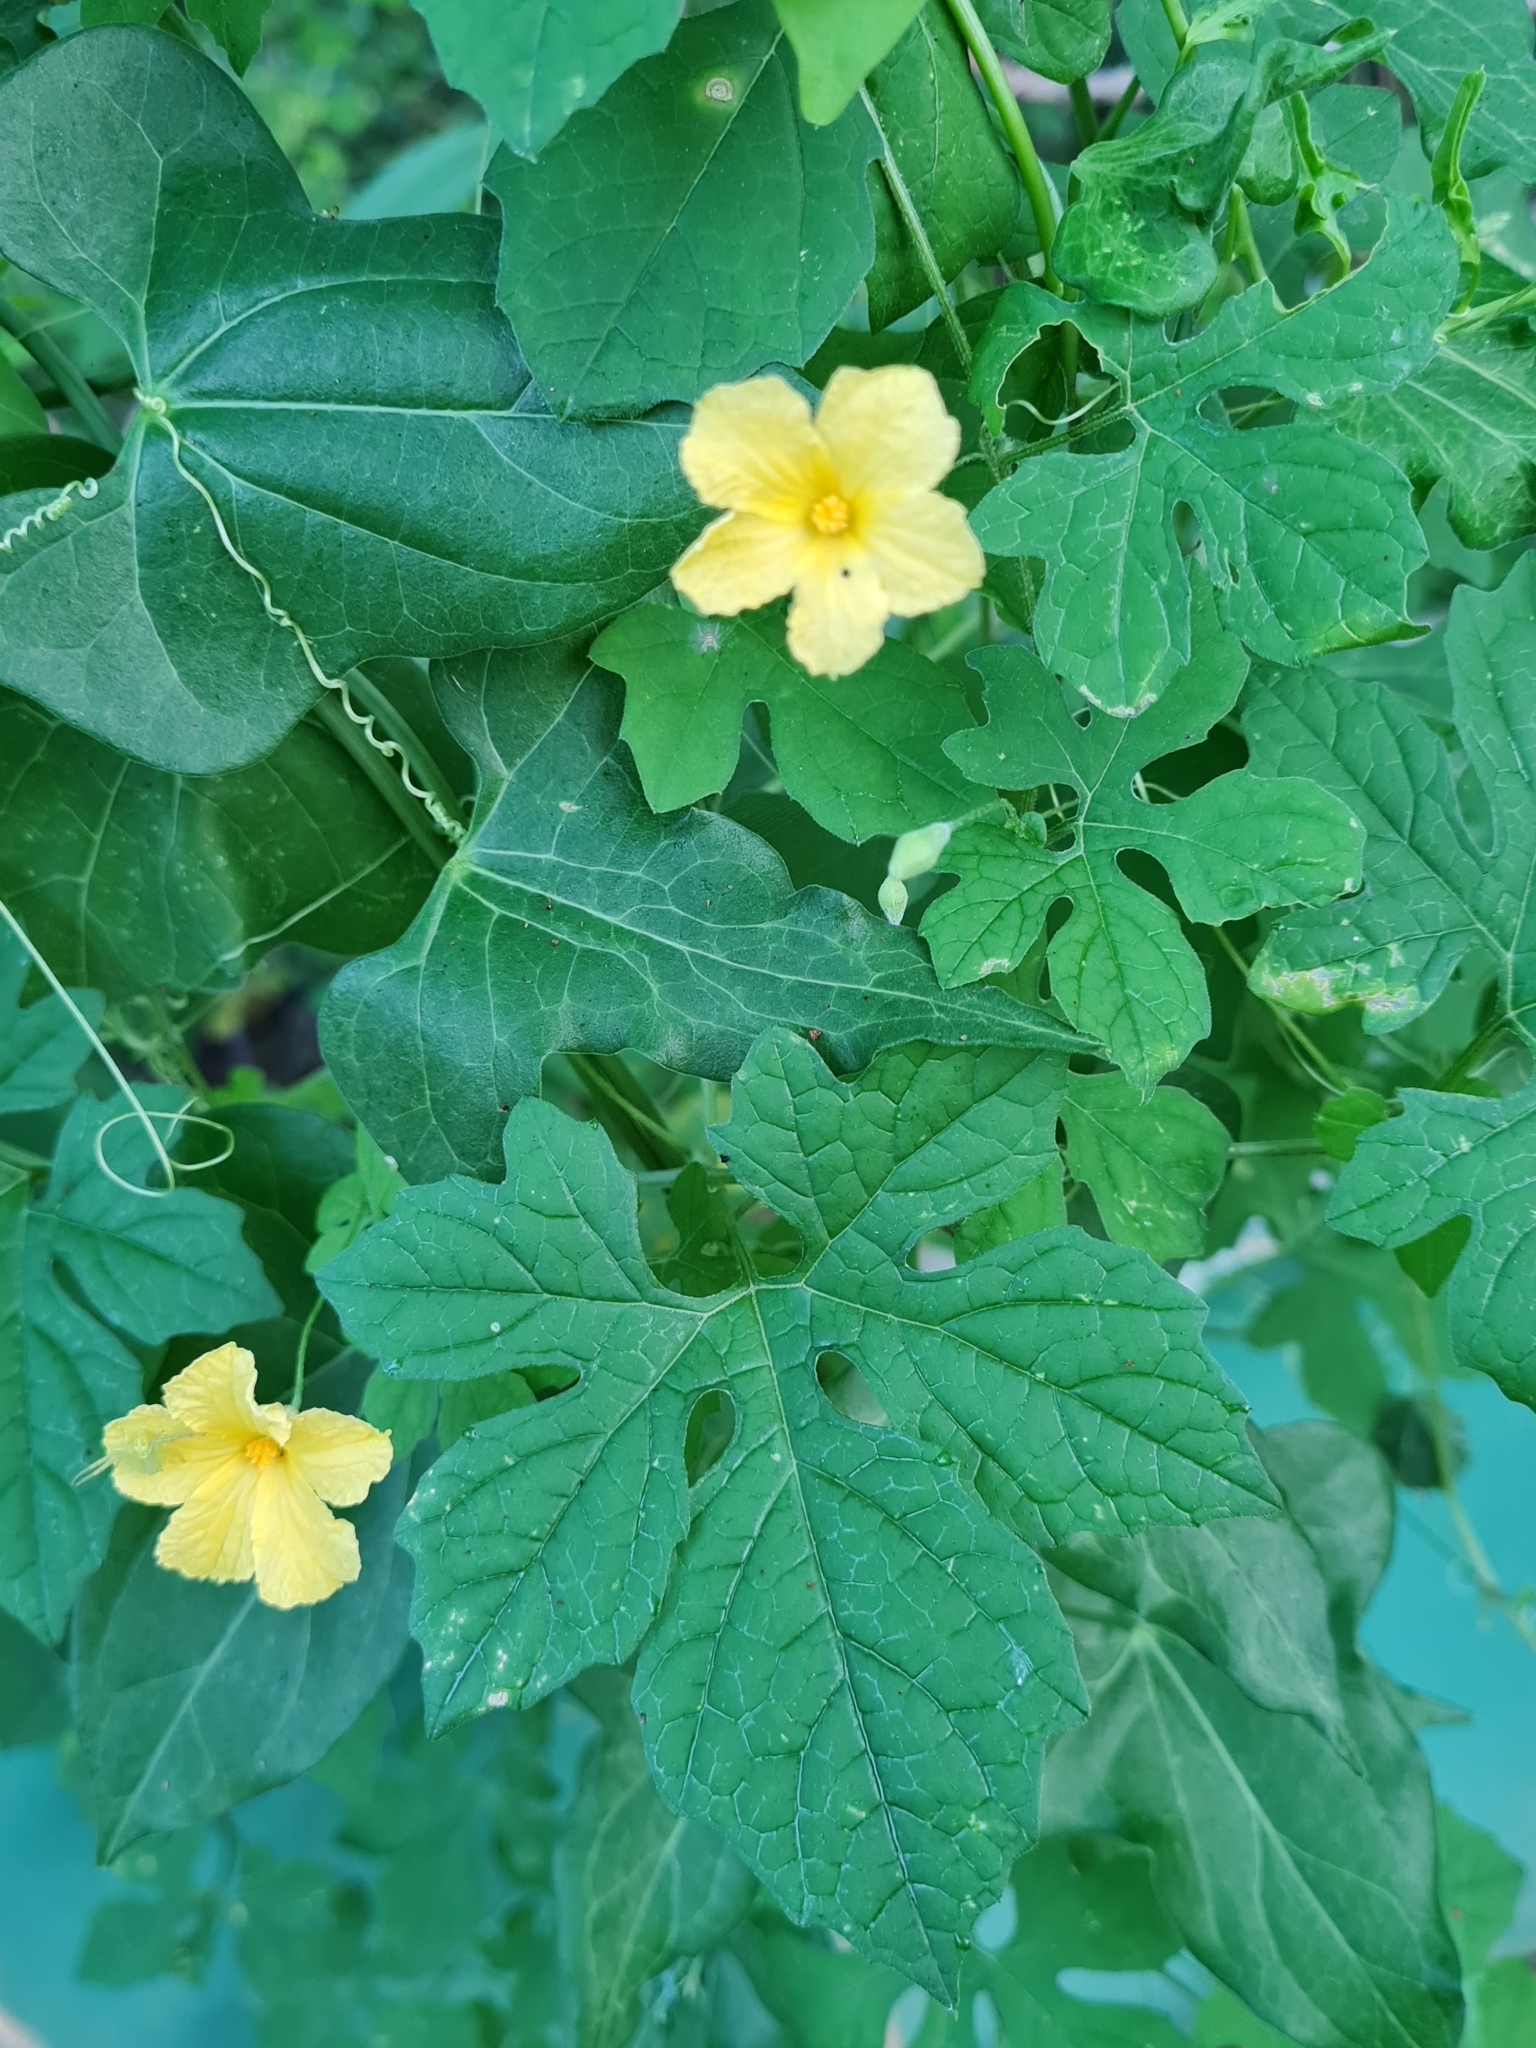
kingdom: Plantae
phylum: Tracheophyta
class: Magnoliopsida
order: Cucurbitales
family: Cucurbitaceae
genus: Momordica
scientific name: Momordica charantia
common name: Balsampear
